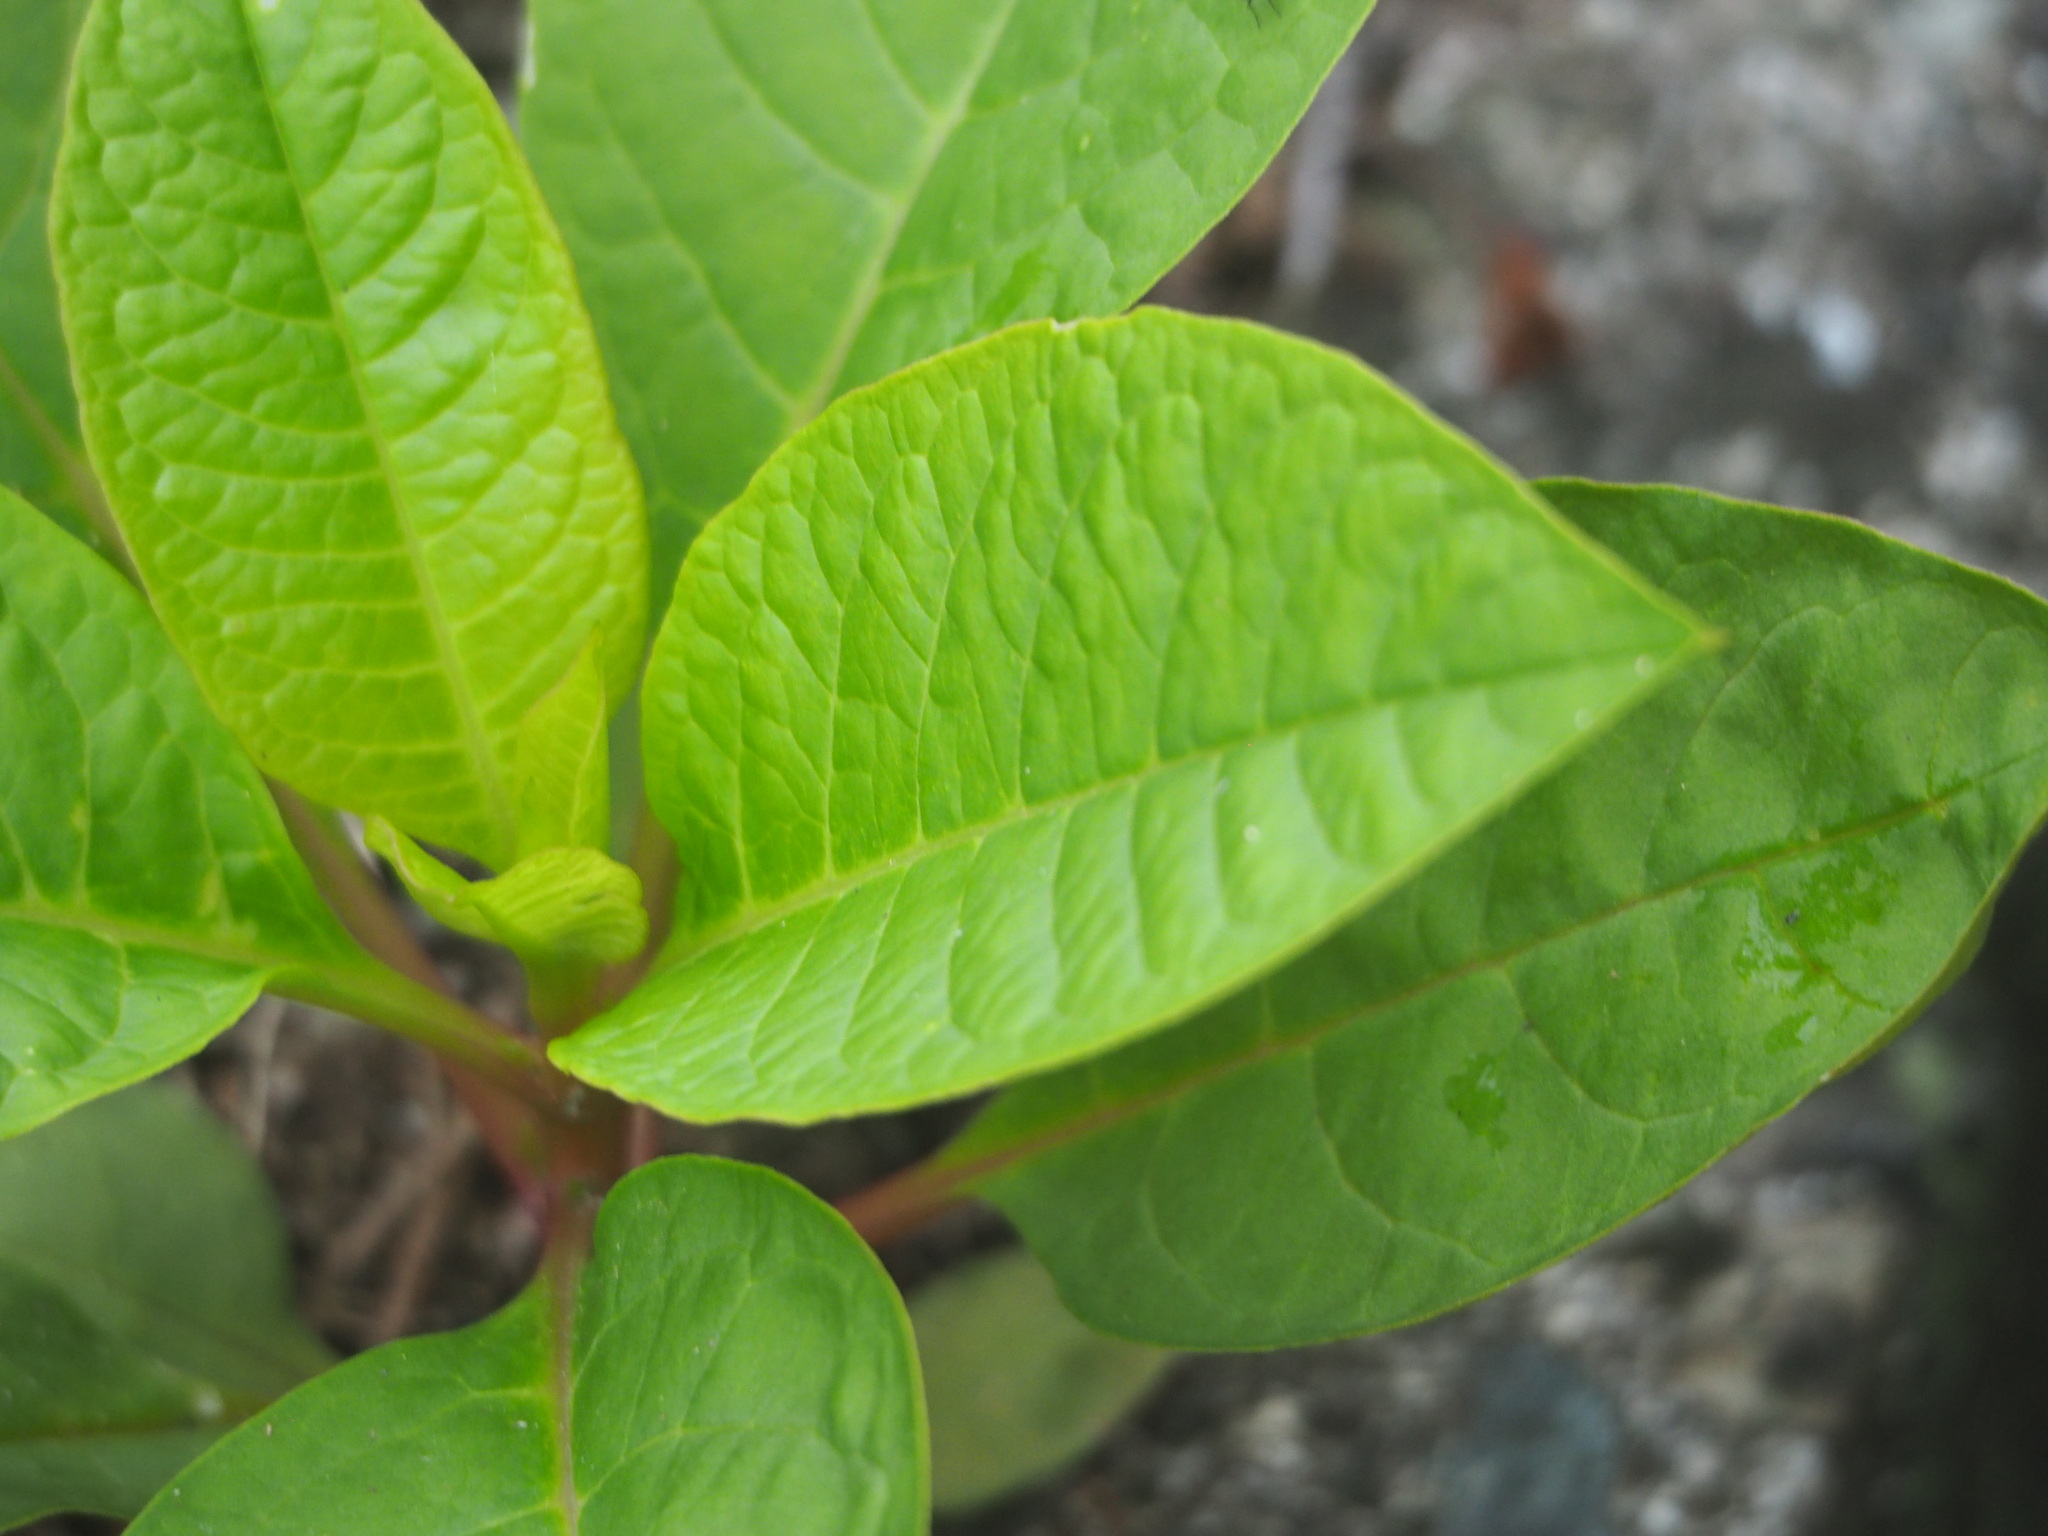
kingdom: Plantae
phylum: Tracheophyta
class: Magnoliopsida
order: Caryophyllales
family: Phytolaccaceae
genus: Phytolacca
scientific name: Phytolacca americana
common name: American pokeweed
